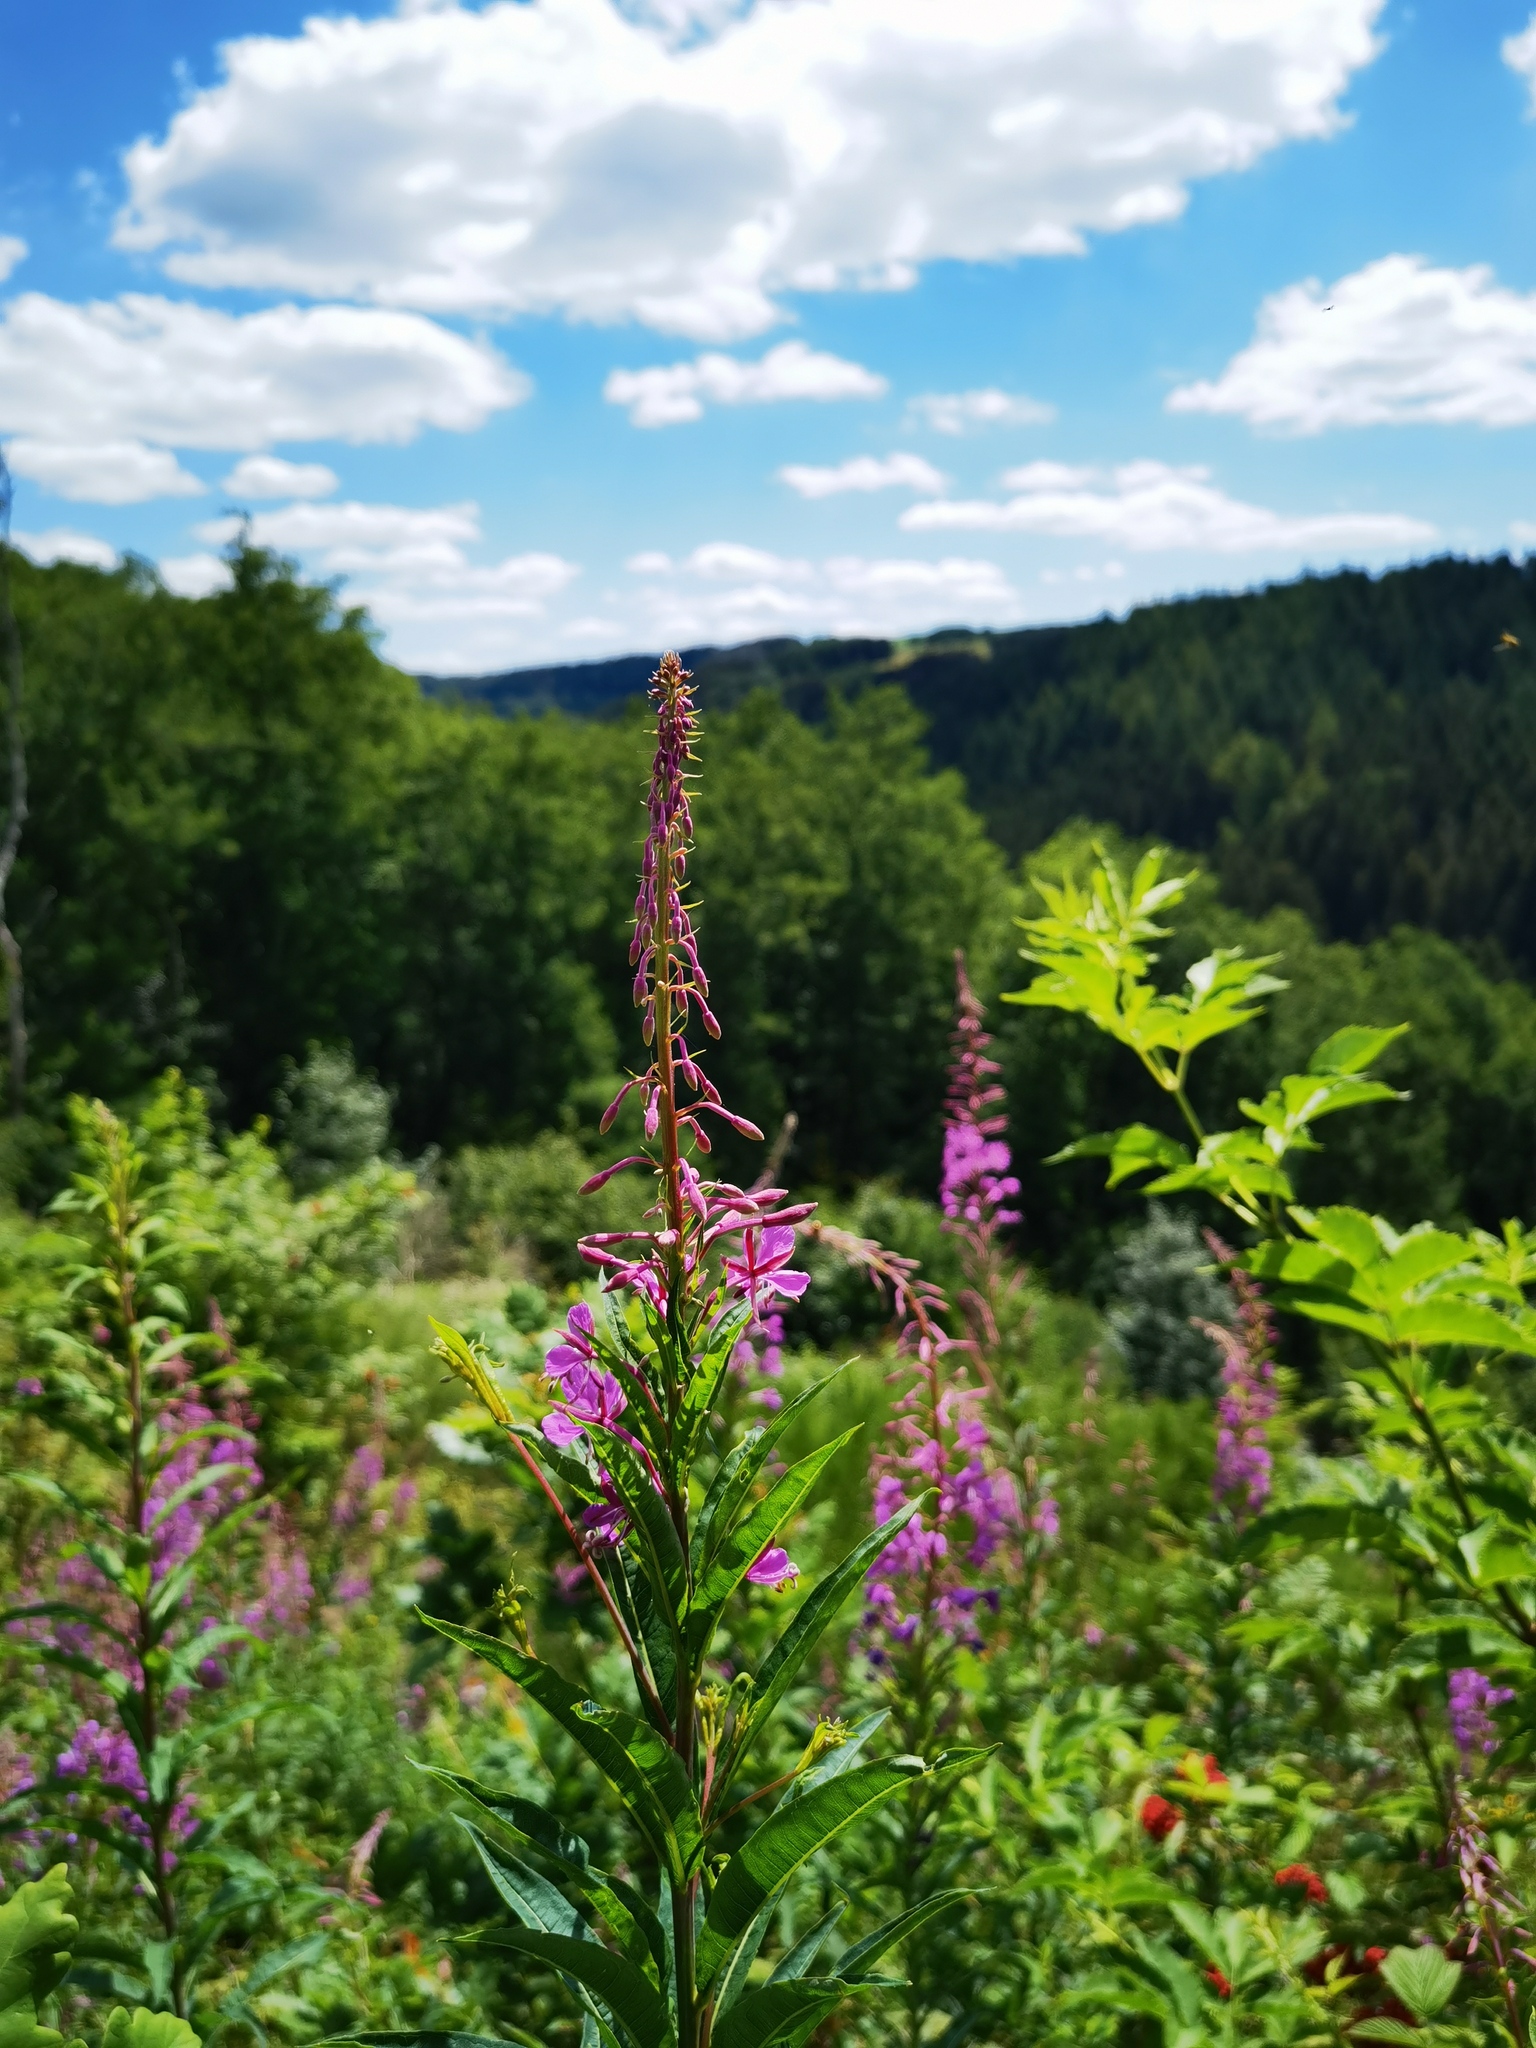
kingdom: Plantae
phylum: Tracheophyta
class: Magnoliopsida
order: Myrtales
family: Onagraceae
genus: Chamaenerion
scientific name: Chamaenerion angustifolium
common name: Fireweed
